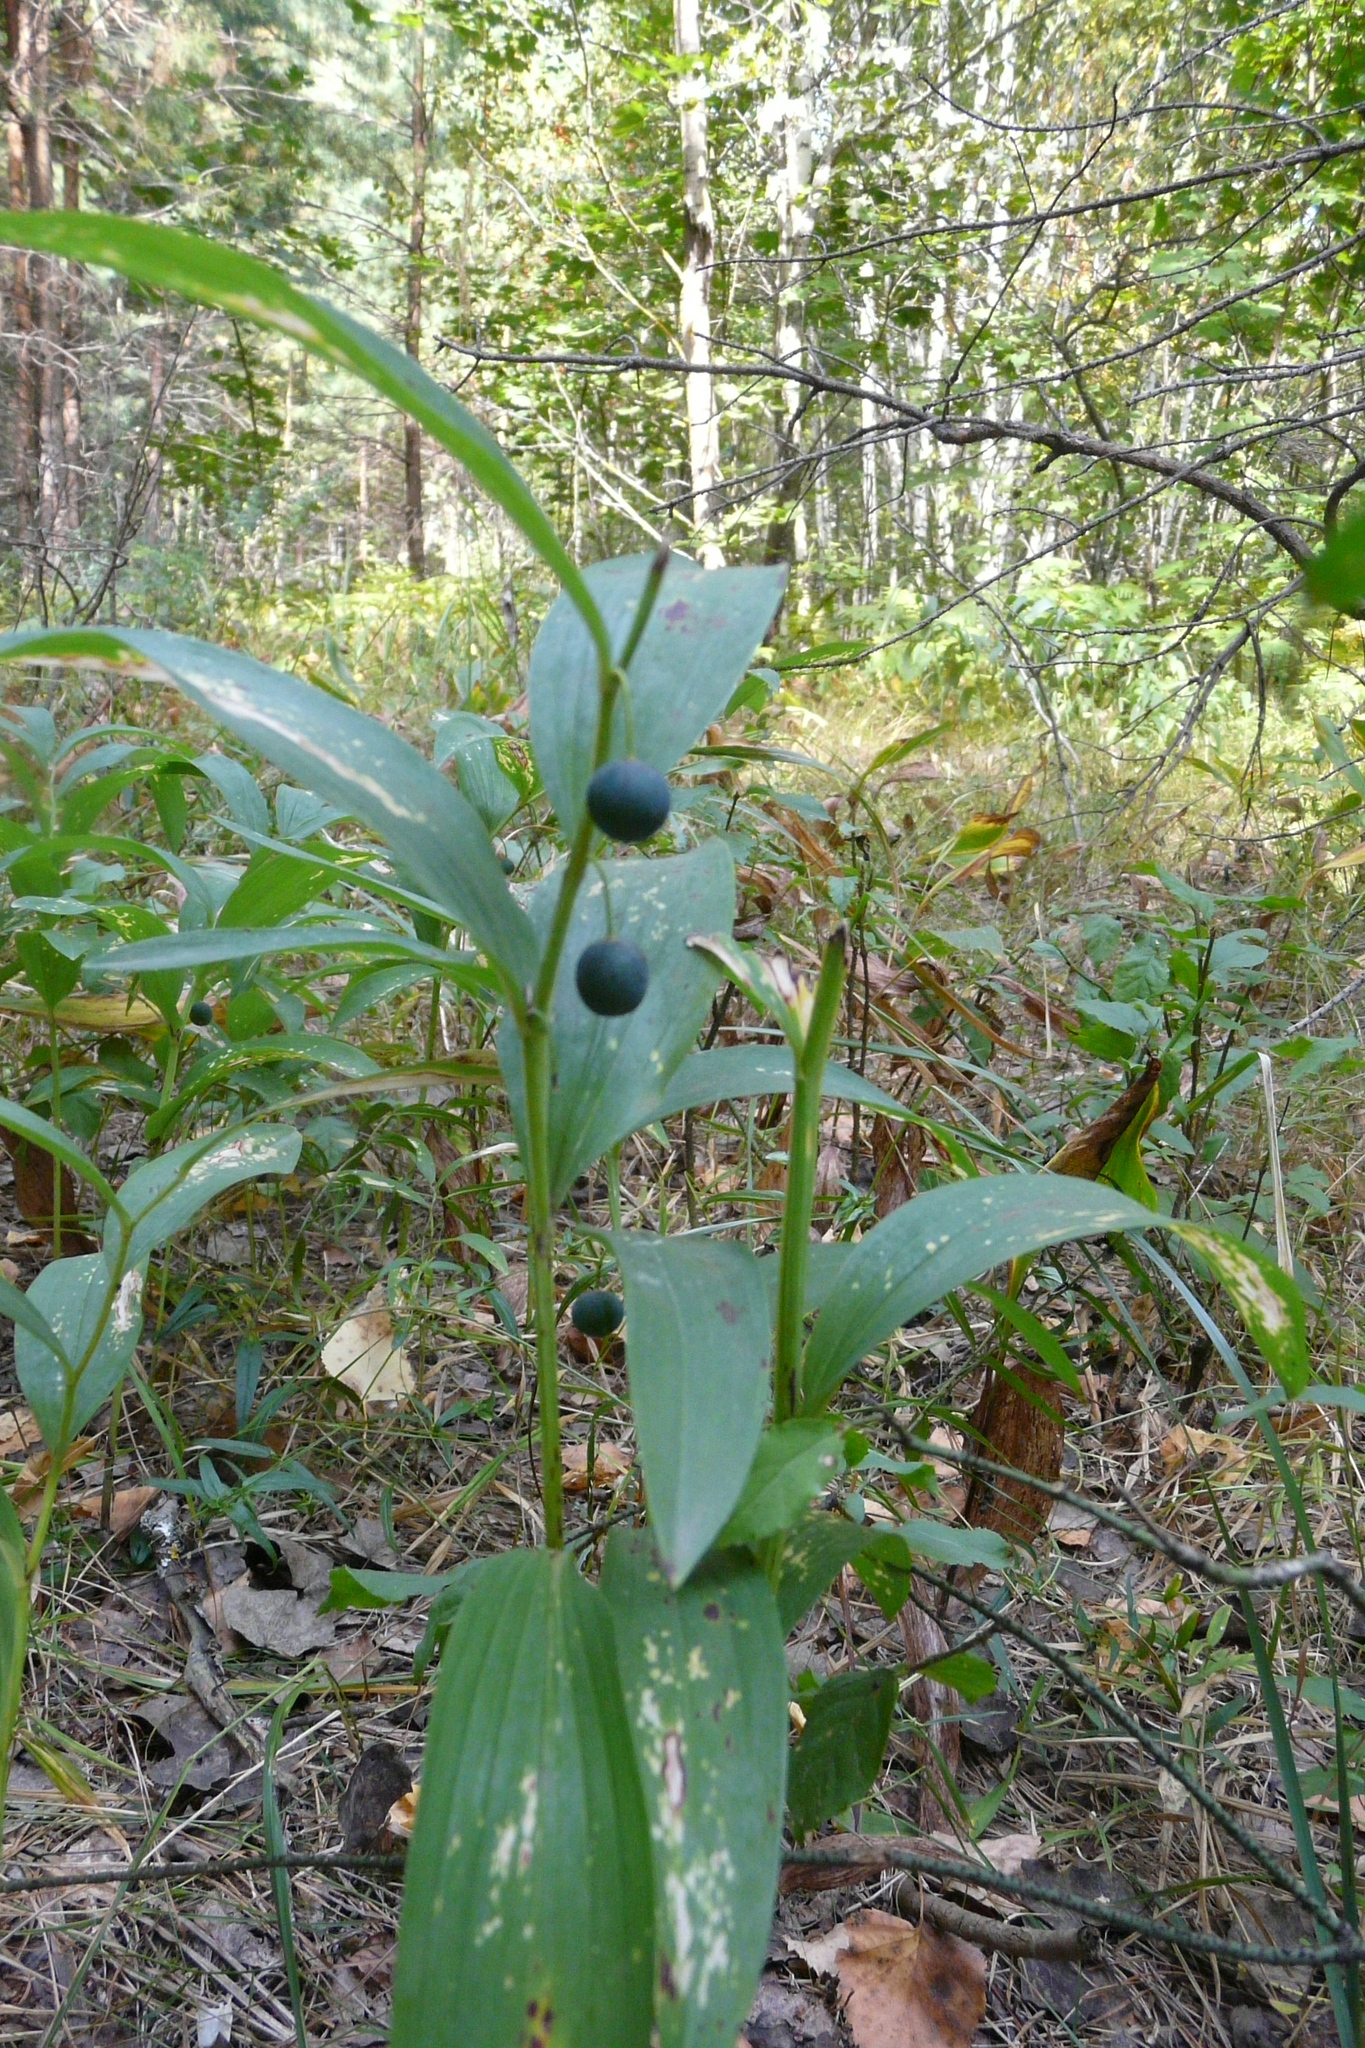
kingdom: Plantae
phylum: Tracheophyta
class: Liliopsida
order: Asparagales
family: Asparagaceae
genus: Polygonatum
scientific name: Polygonatum odoratum
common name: Angular solomon's-seal
